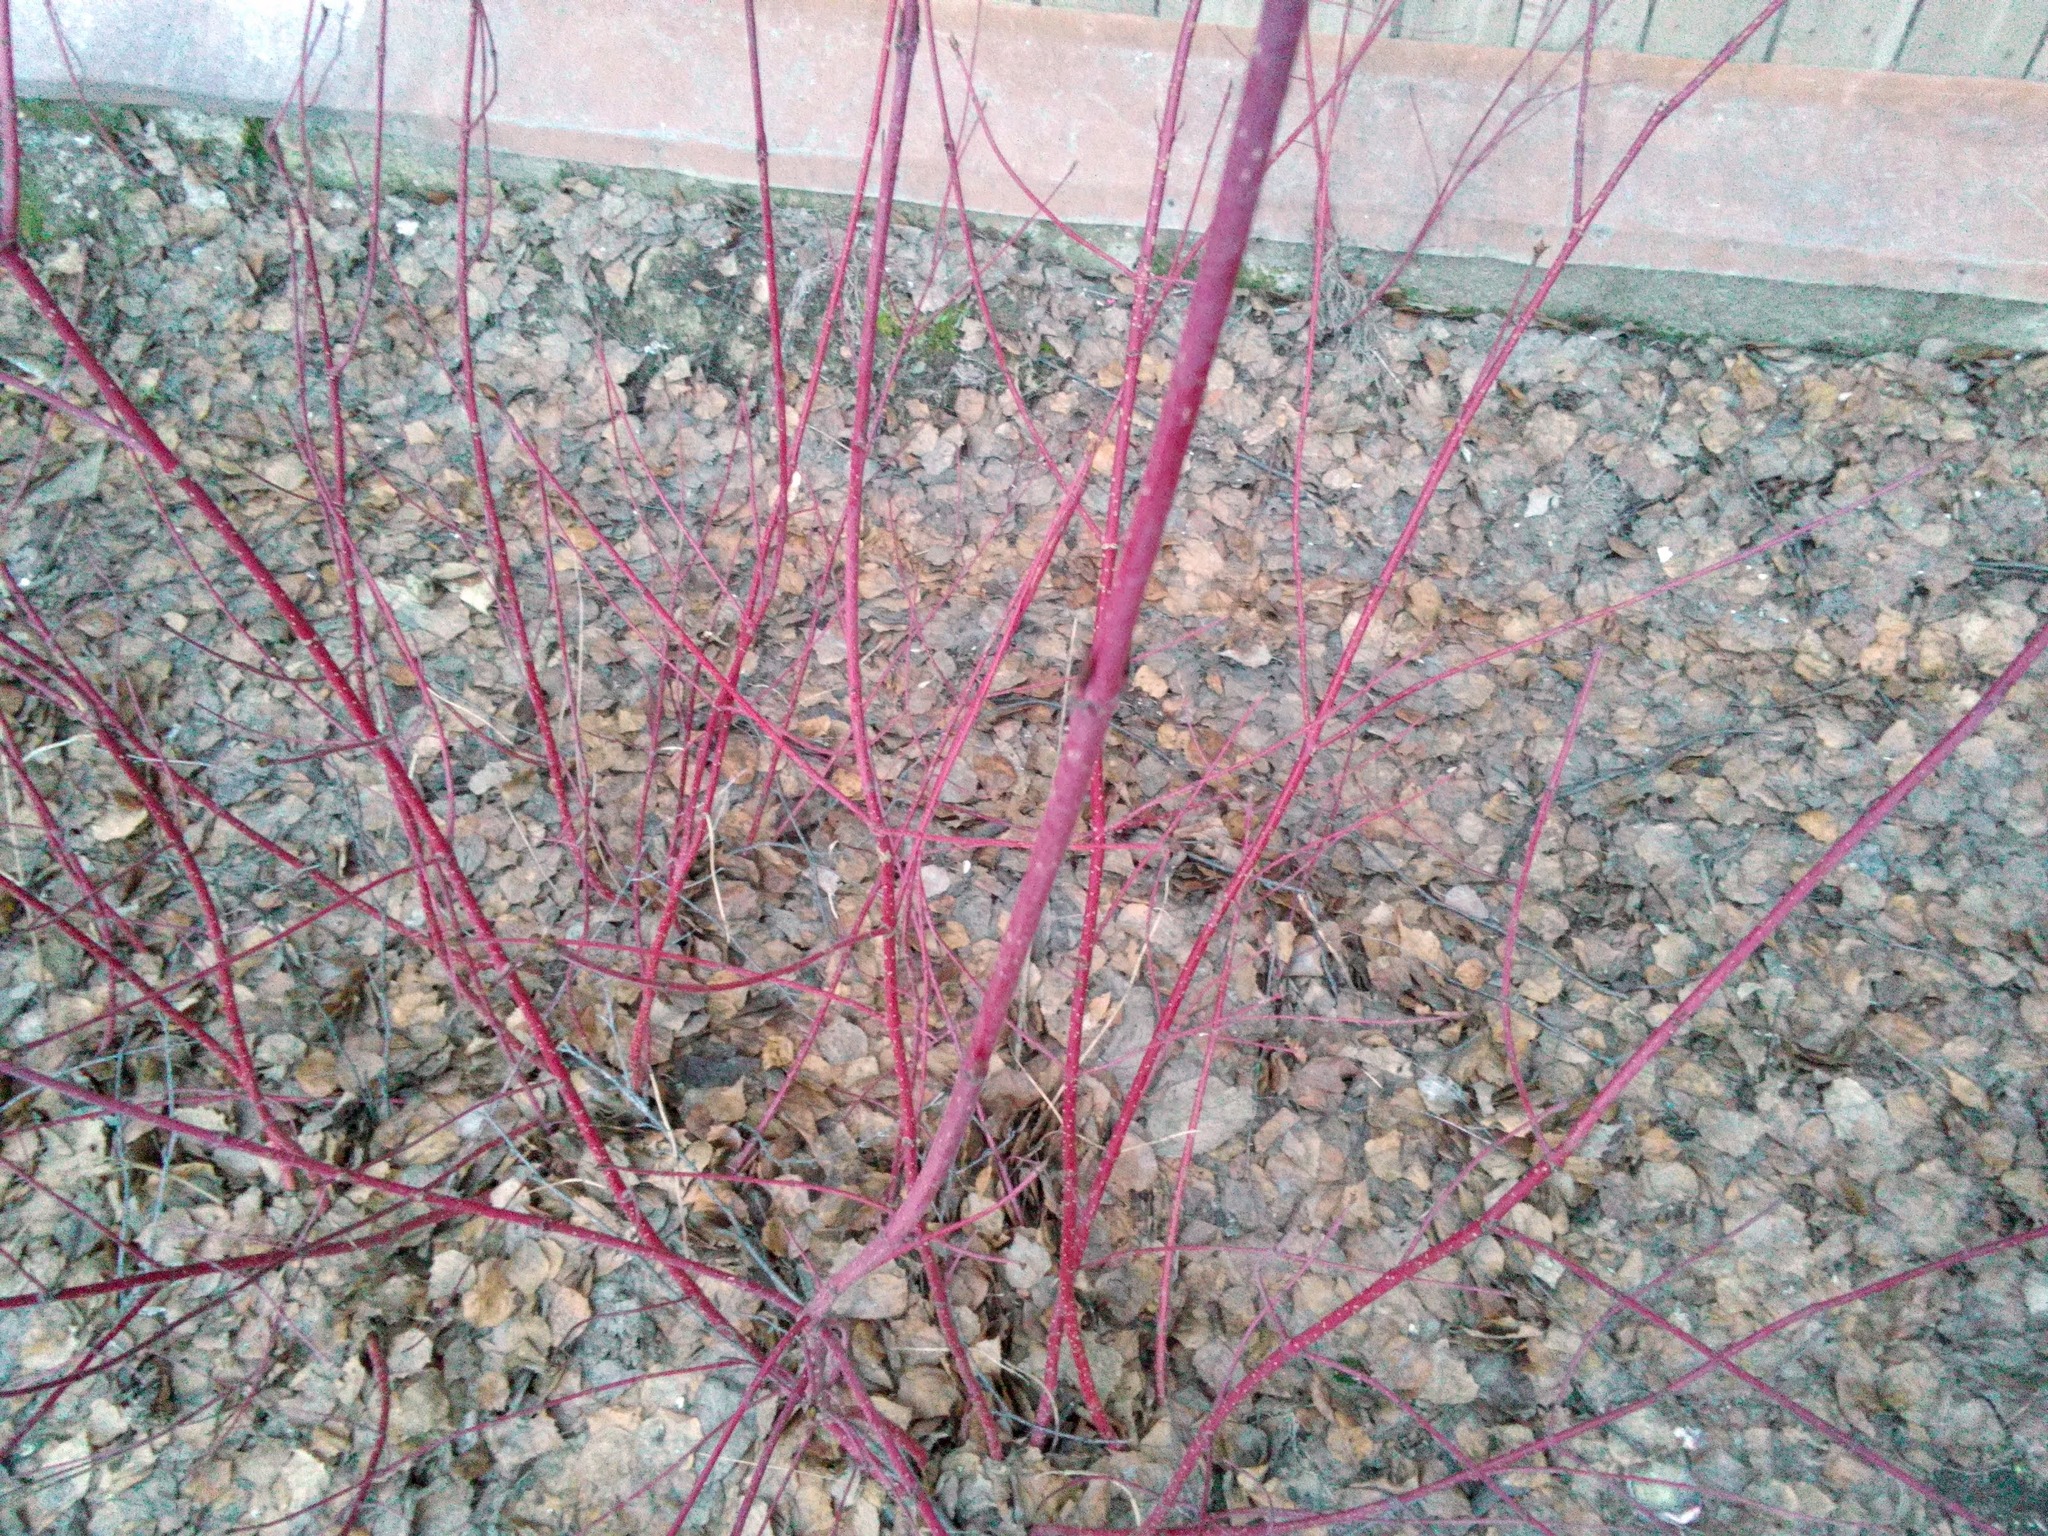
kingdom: Plantae
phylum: Tracheophyta
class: Magnoliopsida
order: Cornales
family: Cornaceae
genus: Cornus
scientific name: Cornus alba
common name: White dogwood
